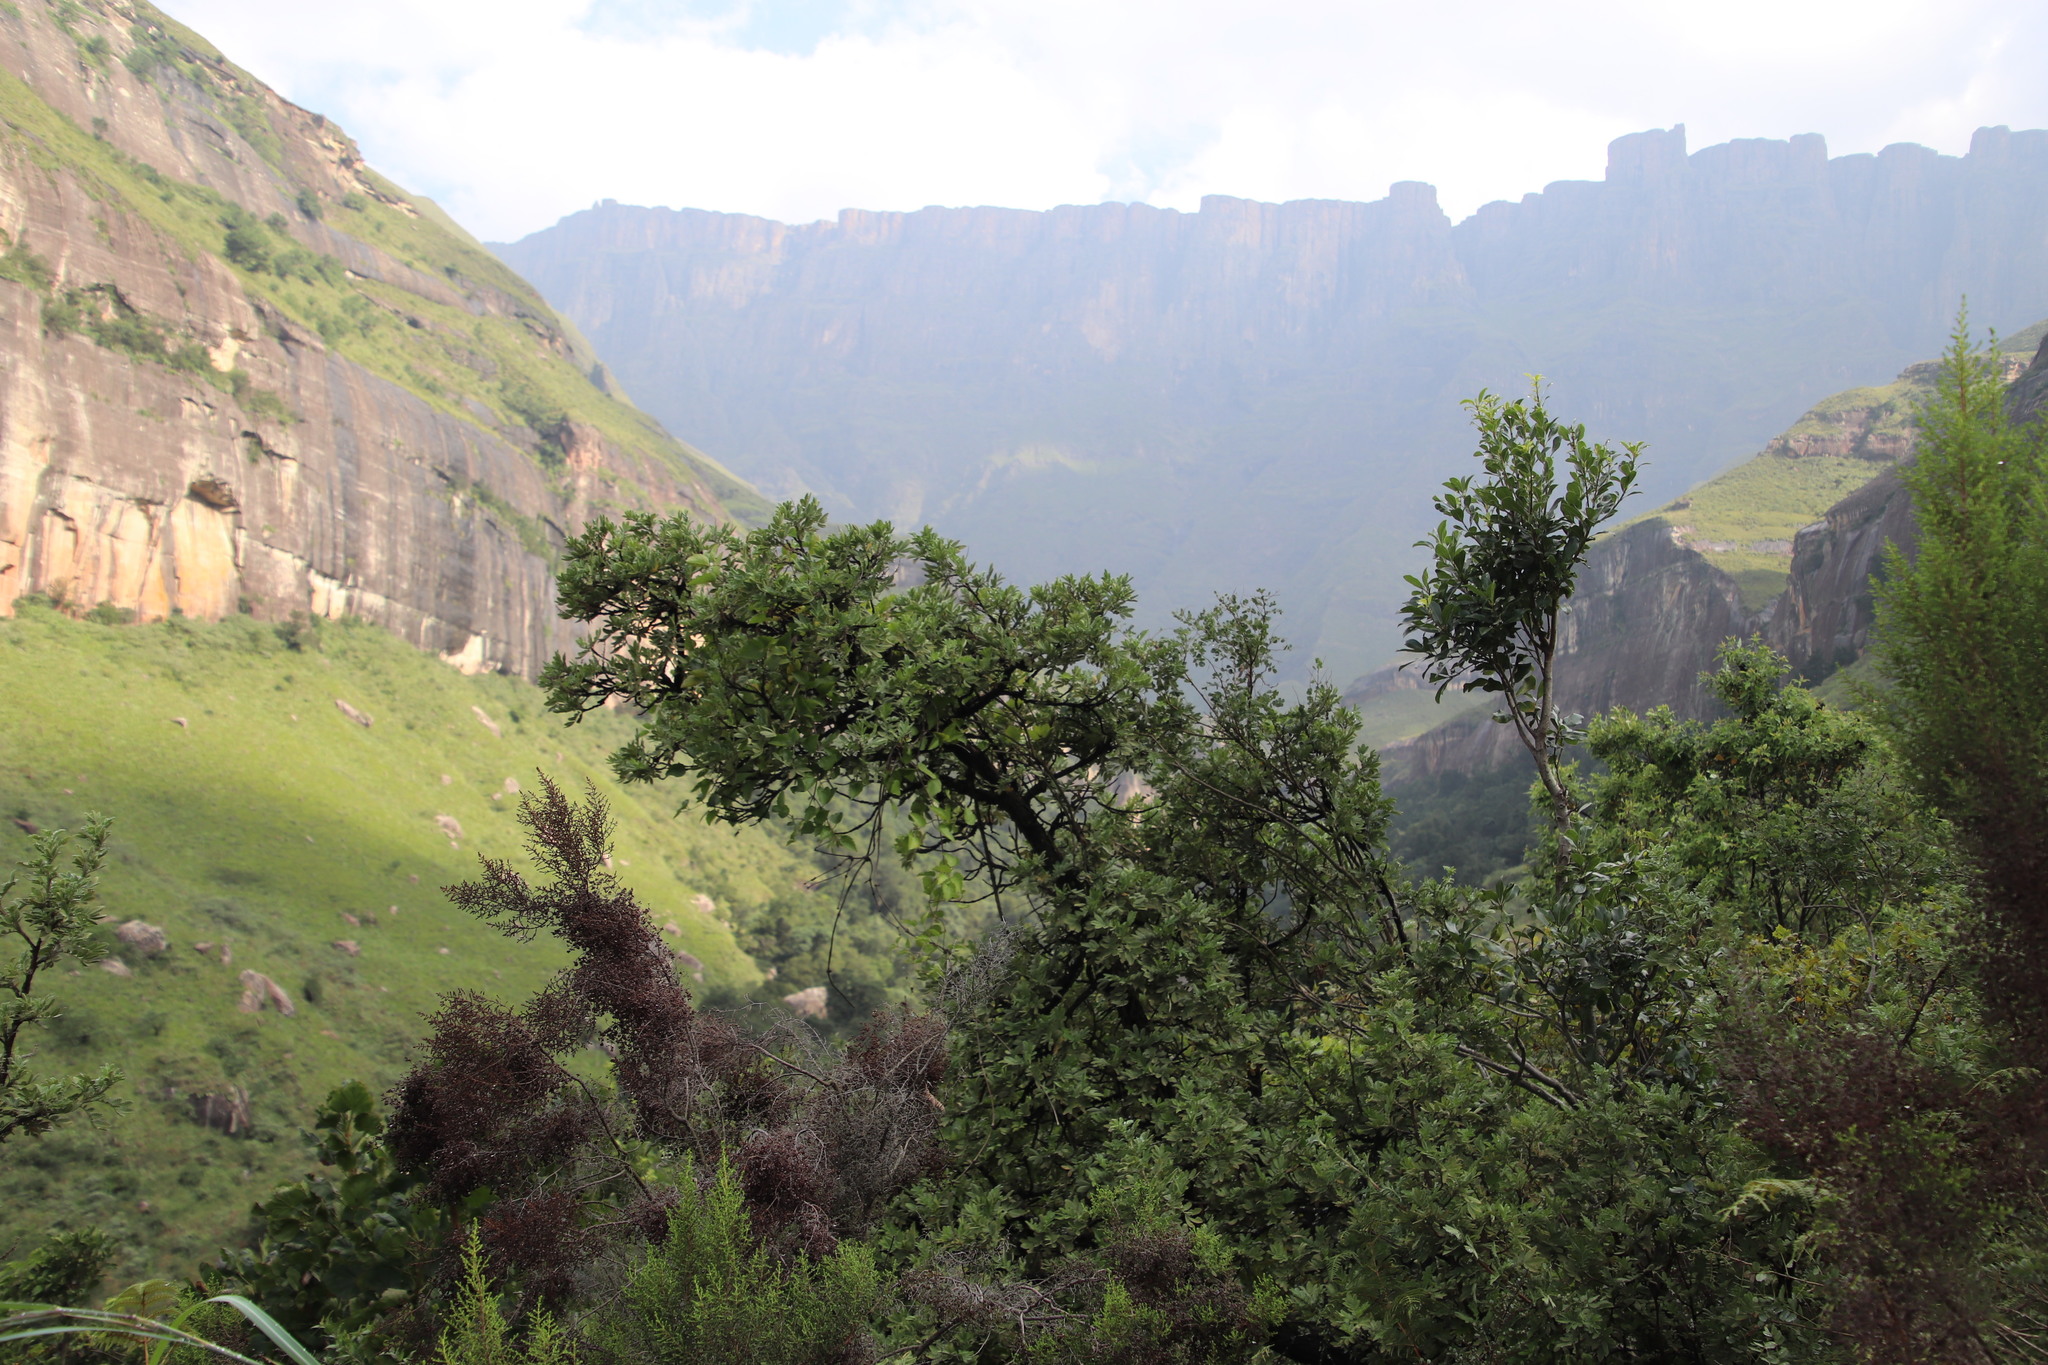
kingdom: Plantae
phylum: Tracheophyta
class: Magnoliopsida
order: Rosales
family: Rosaceae
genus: Leucosidea
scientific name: Leucosidea sericea
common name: Oldwood
